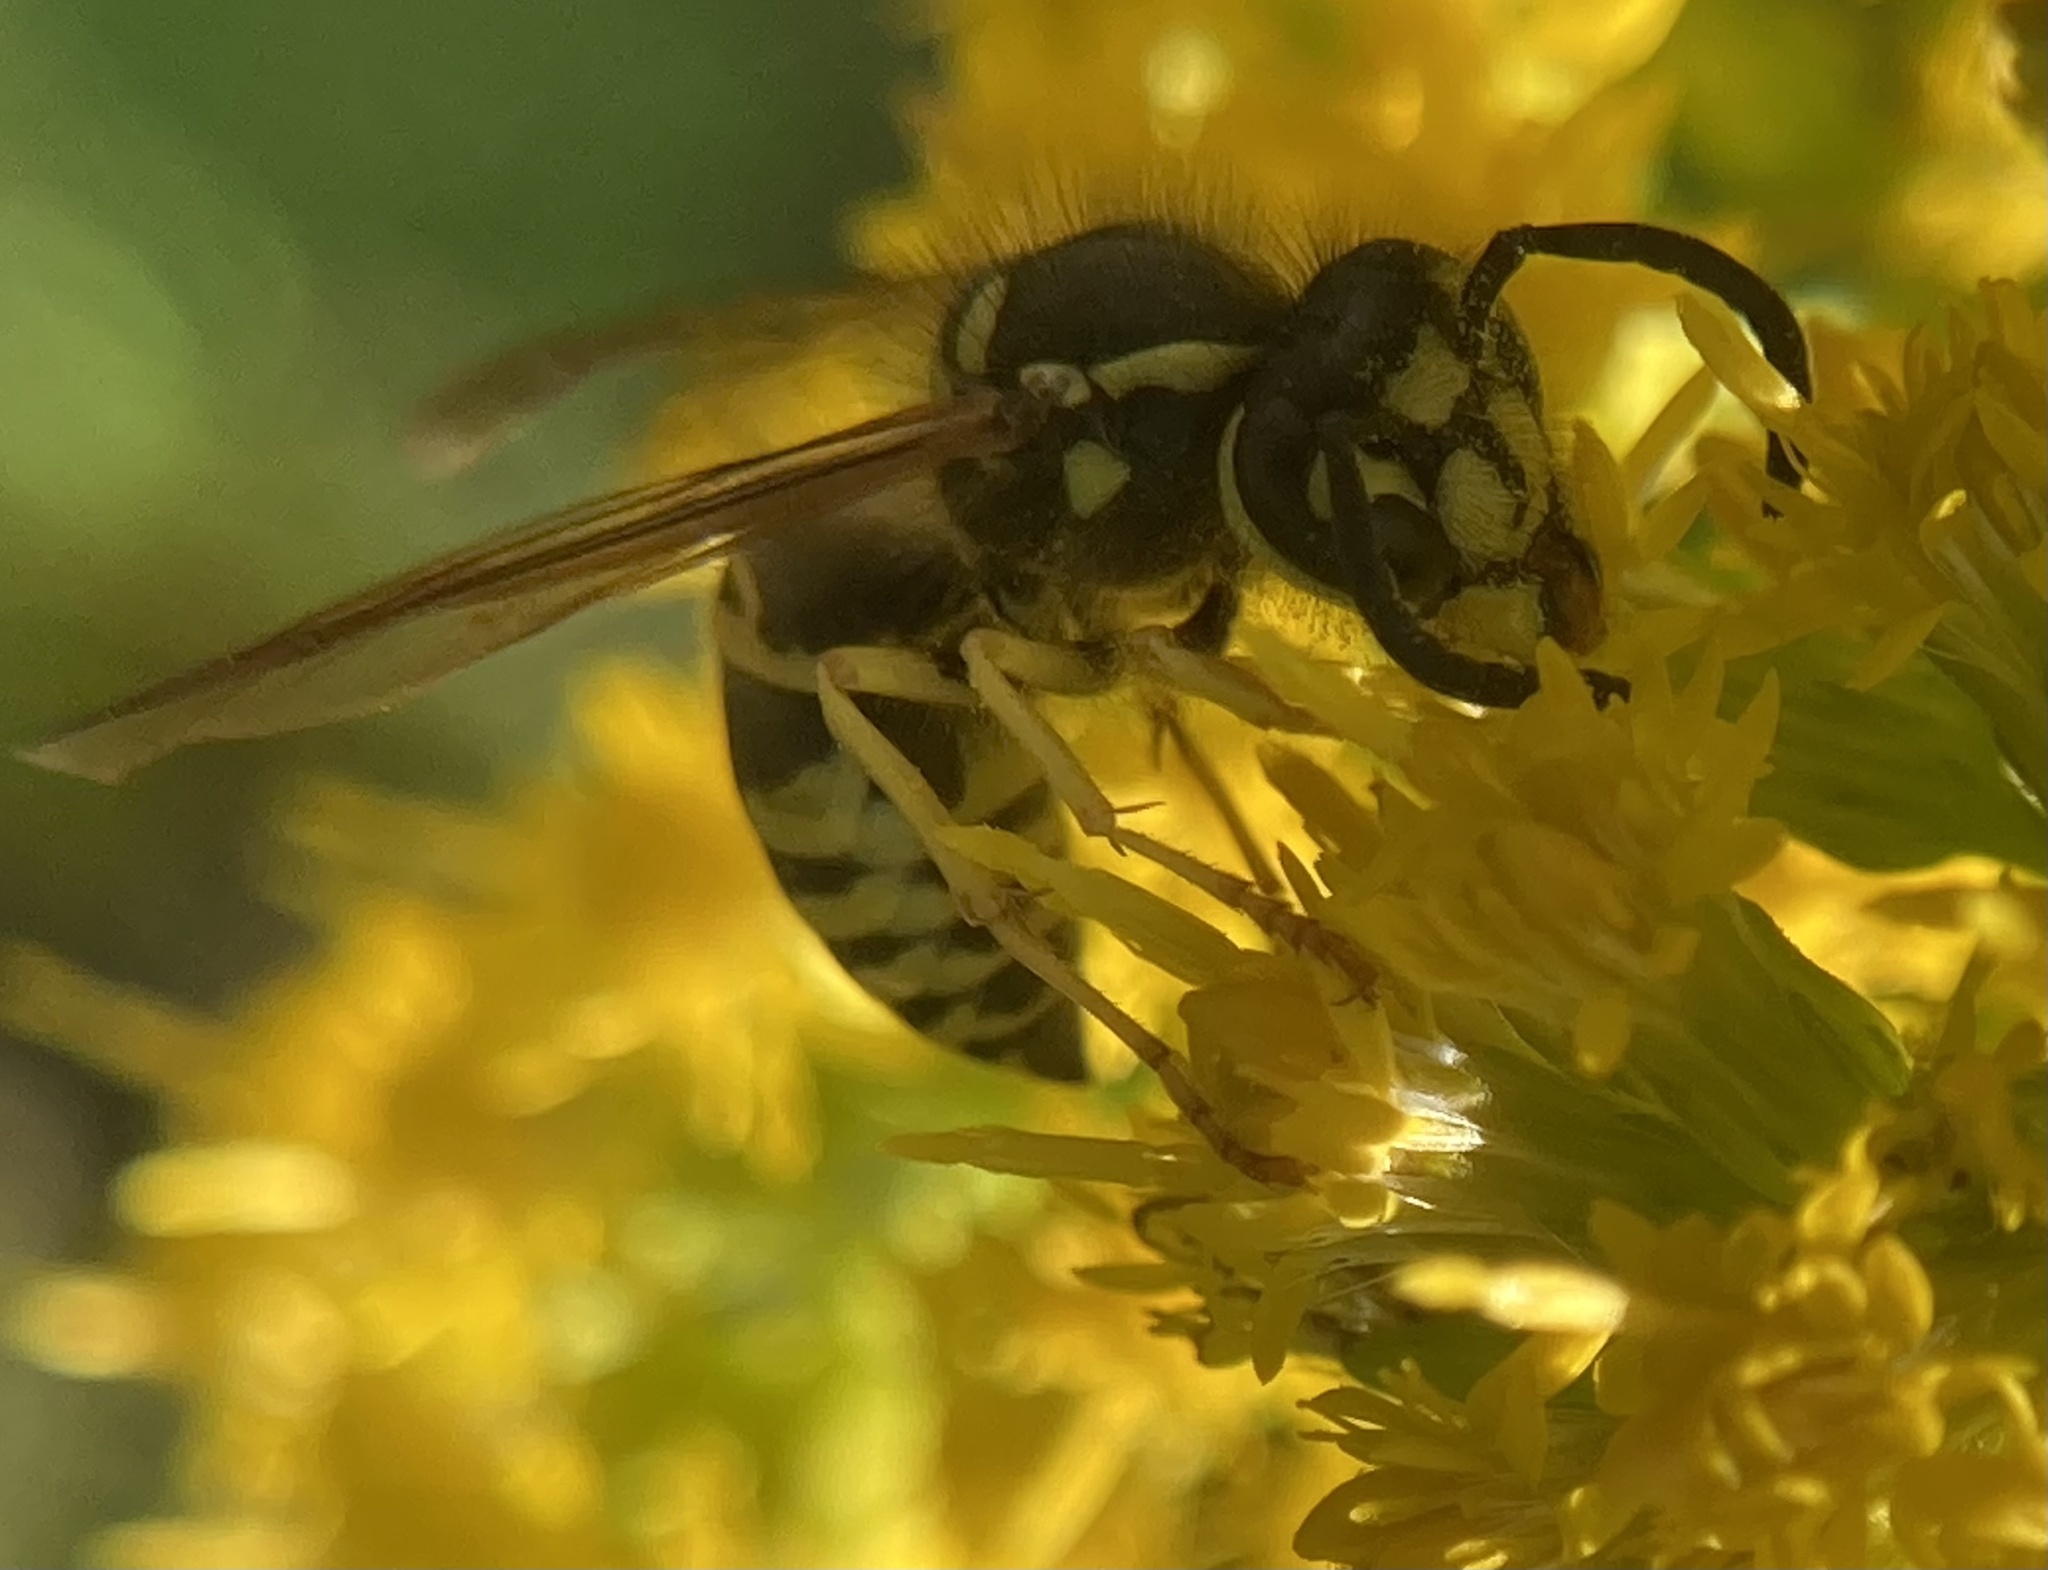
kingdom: Animalia
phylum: Arthropoda
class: Insecta
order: Hymenoptera
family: Vespidae
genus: Vespula
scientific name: Vespula maculifrons
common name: Eastern yellowjacket
